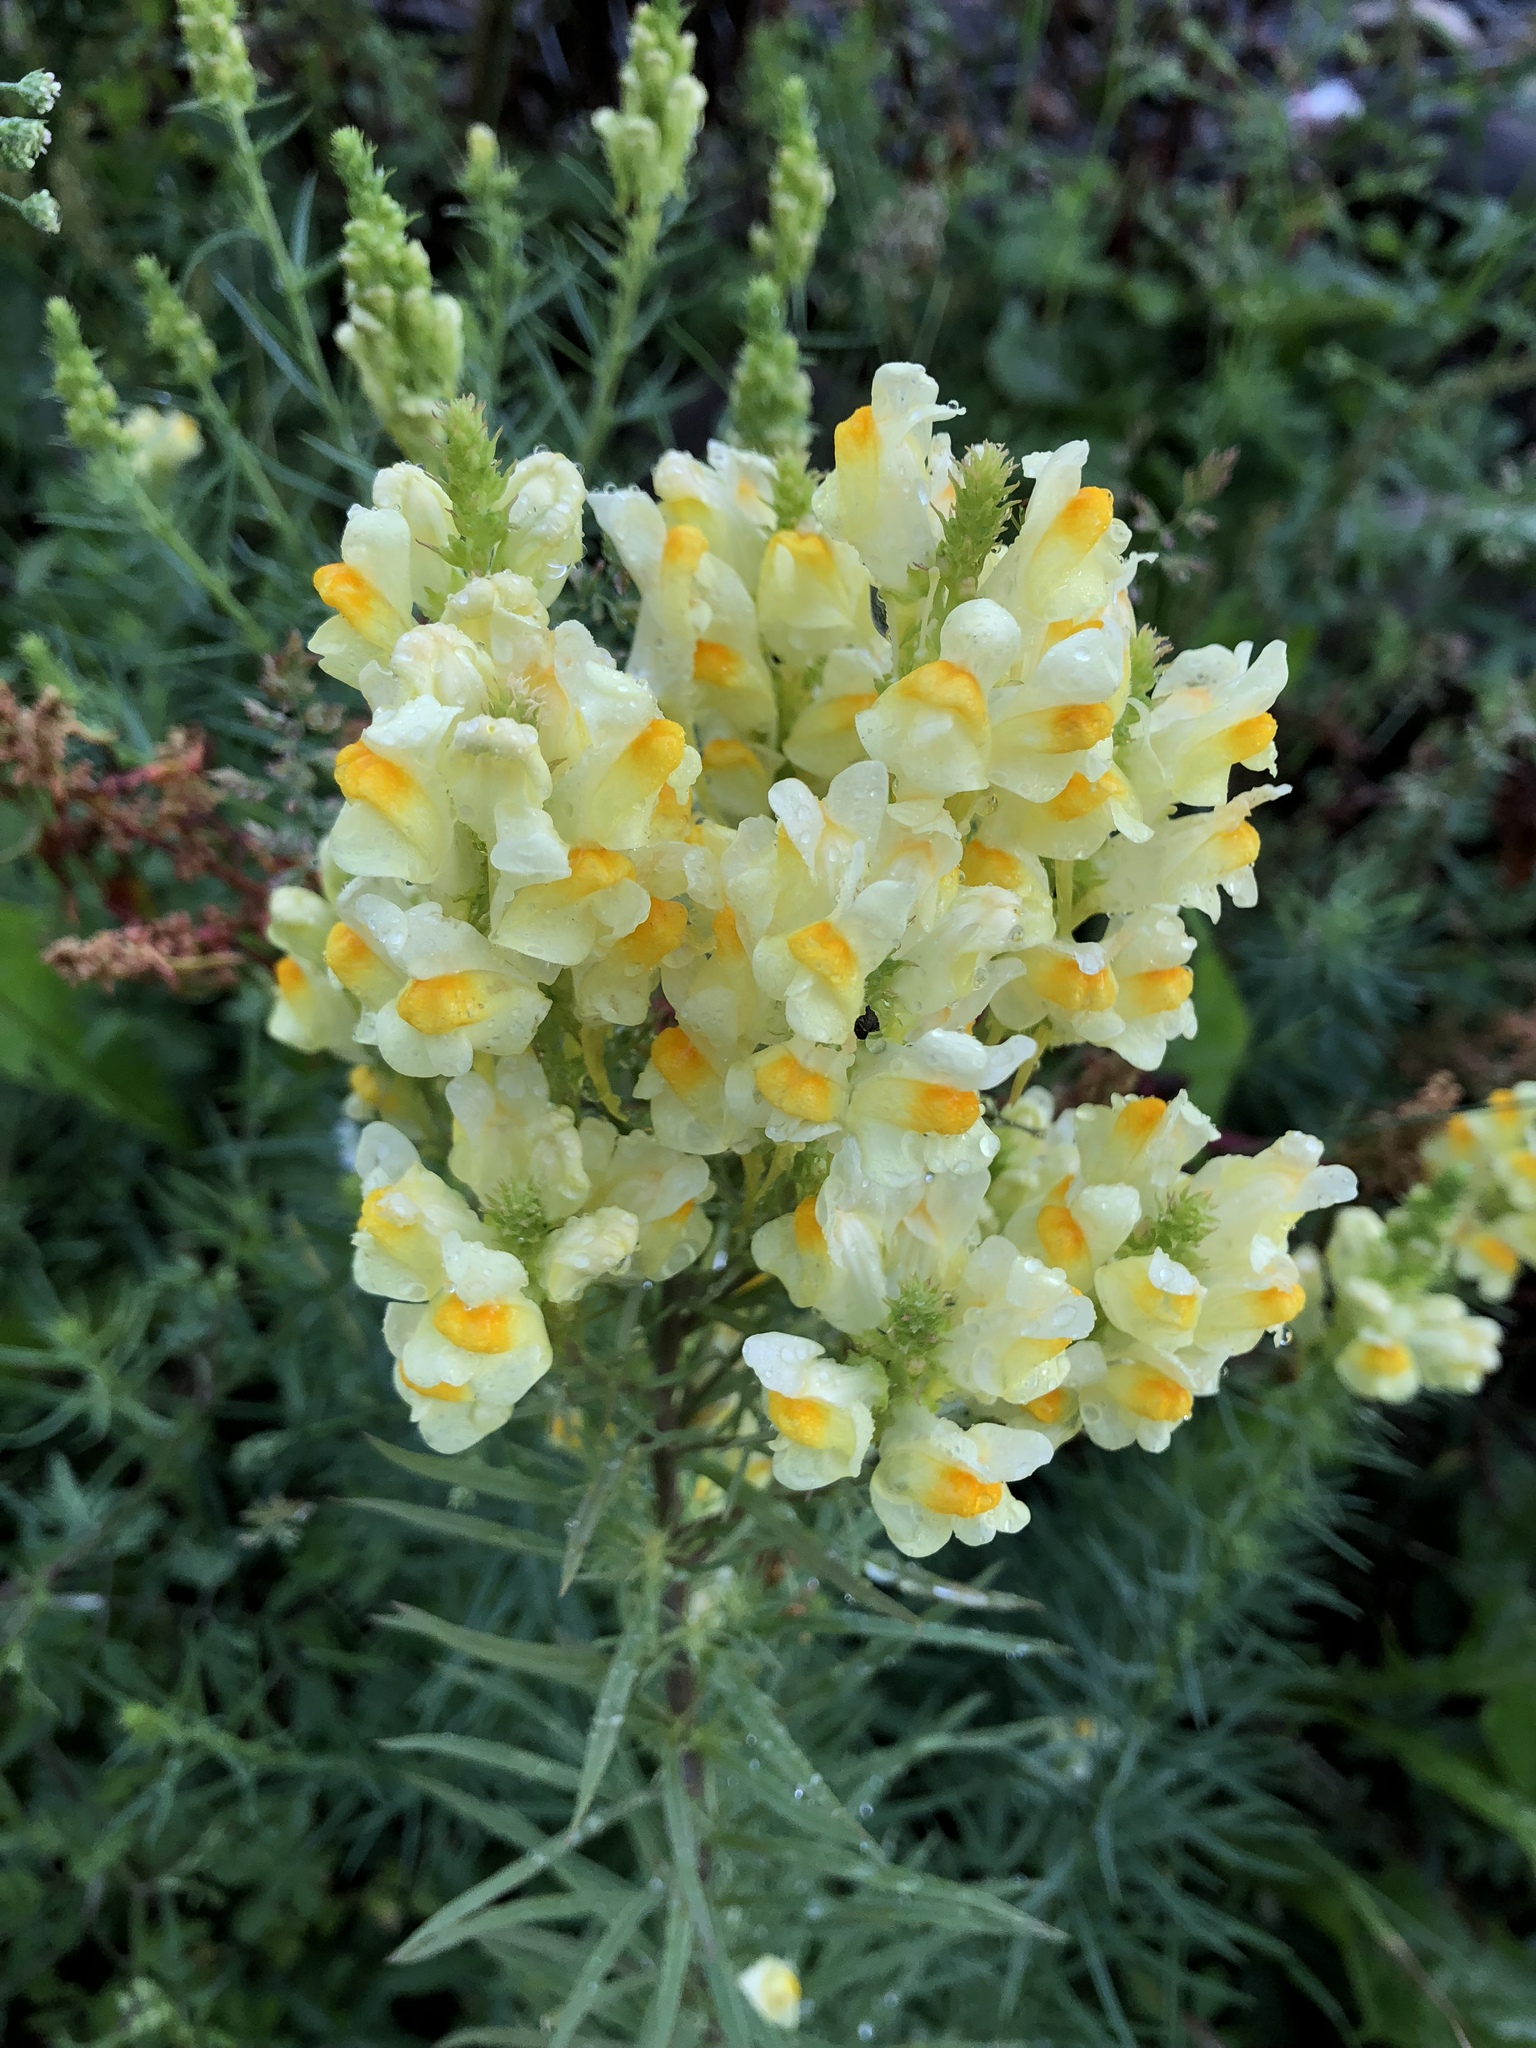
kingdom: Plantae
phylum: Tracheophyta
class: Magnoliopsida
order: Lamiales
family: Plantaginaceae
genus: Linaria
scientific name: Linaria vulgaris
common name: Butter and eggs
